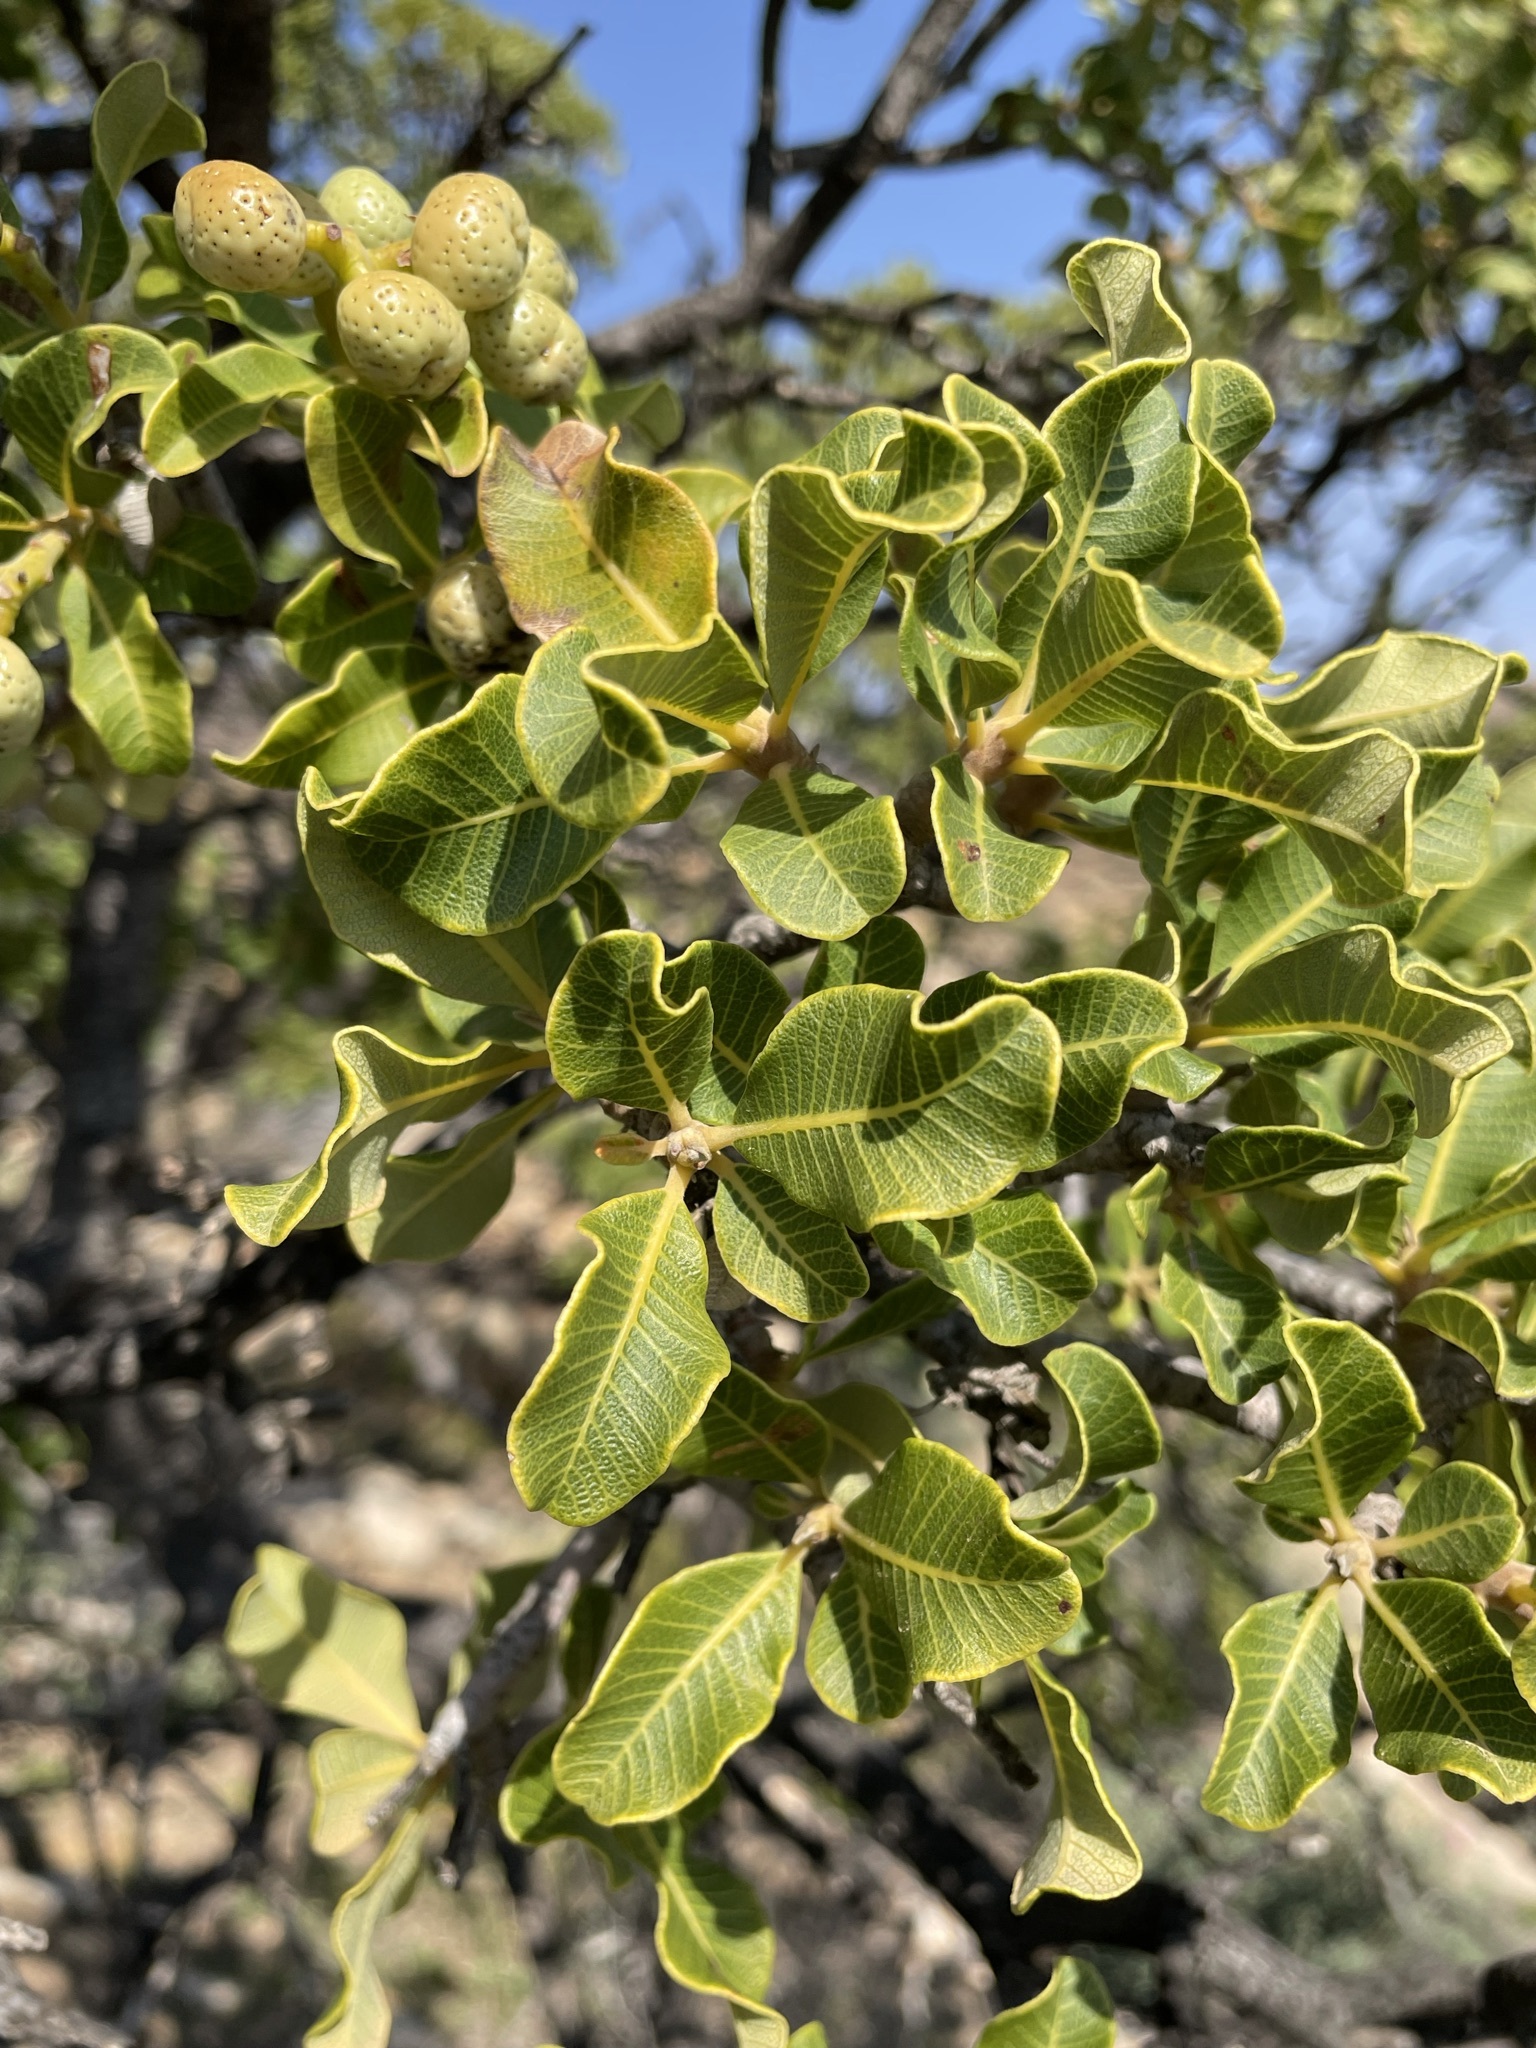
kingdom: Plantae
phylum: Tracheophyta
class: Magnoliopsida
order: Sapindales
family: Anacardiaceae
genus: Ozoroa
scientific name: Ozoroa dispar
